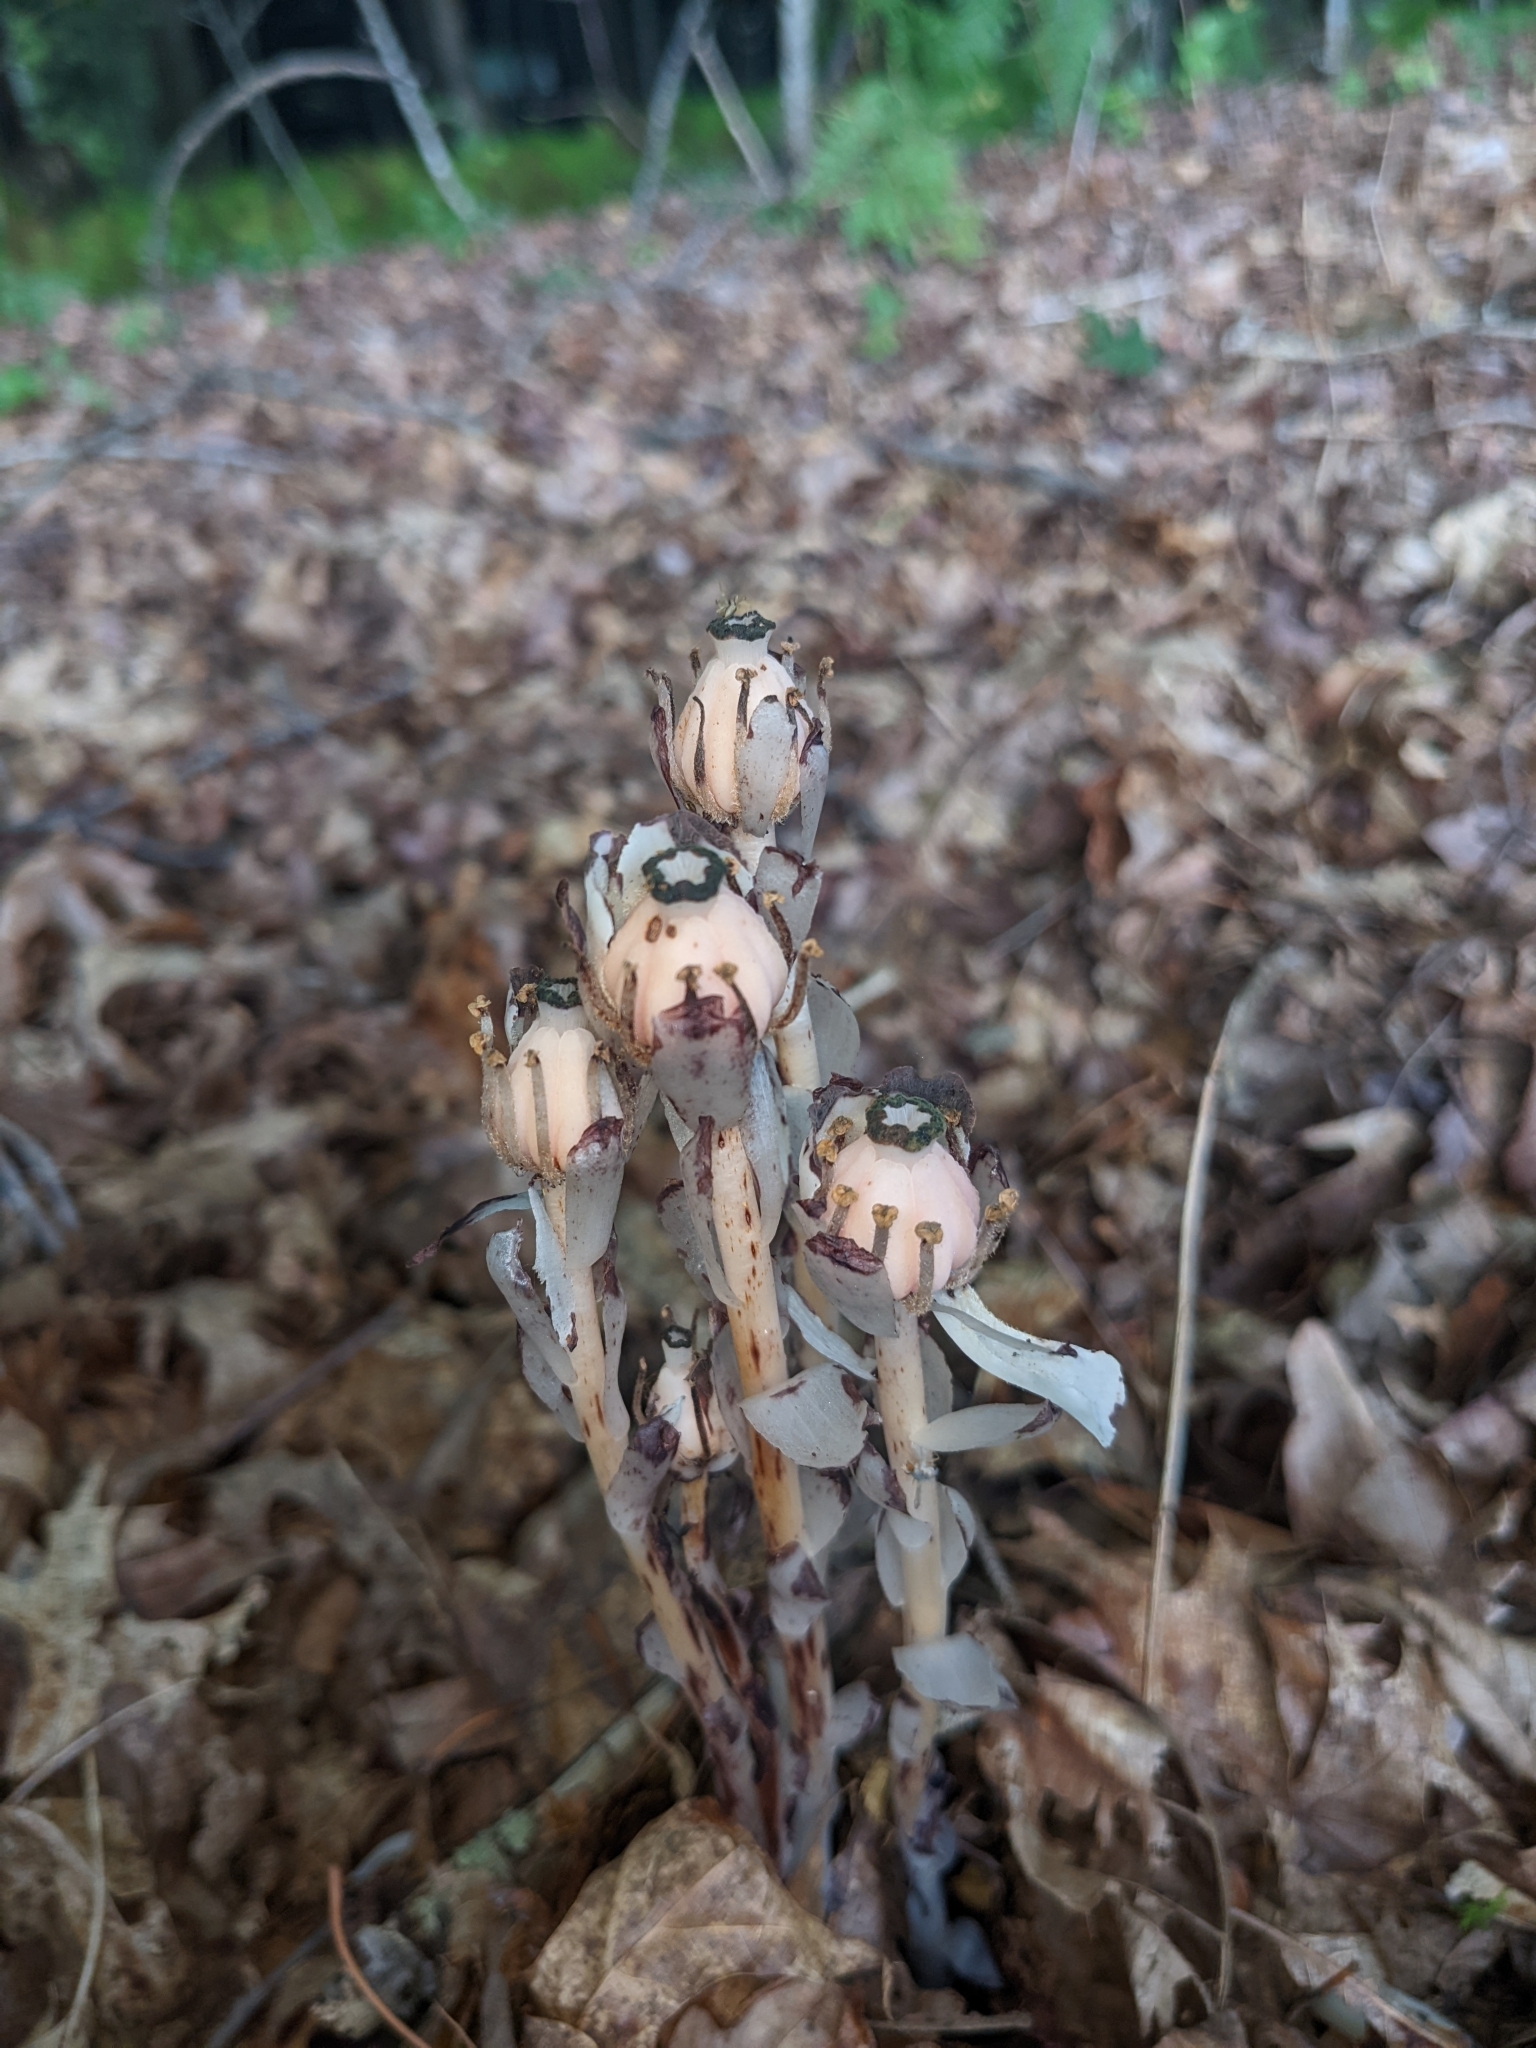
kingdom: Plantae
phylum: Tracheophyta
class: Magnoliopsida
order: Ericales
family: Ericaceae
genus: Monotropa
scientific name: Monotropa uniflora
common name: Convulsion root
